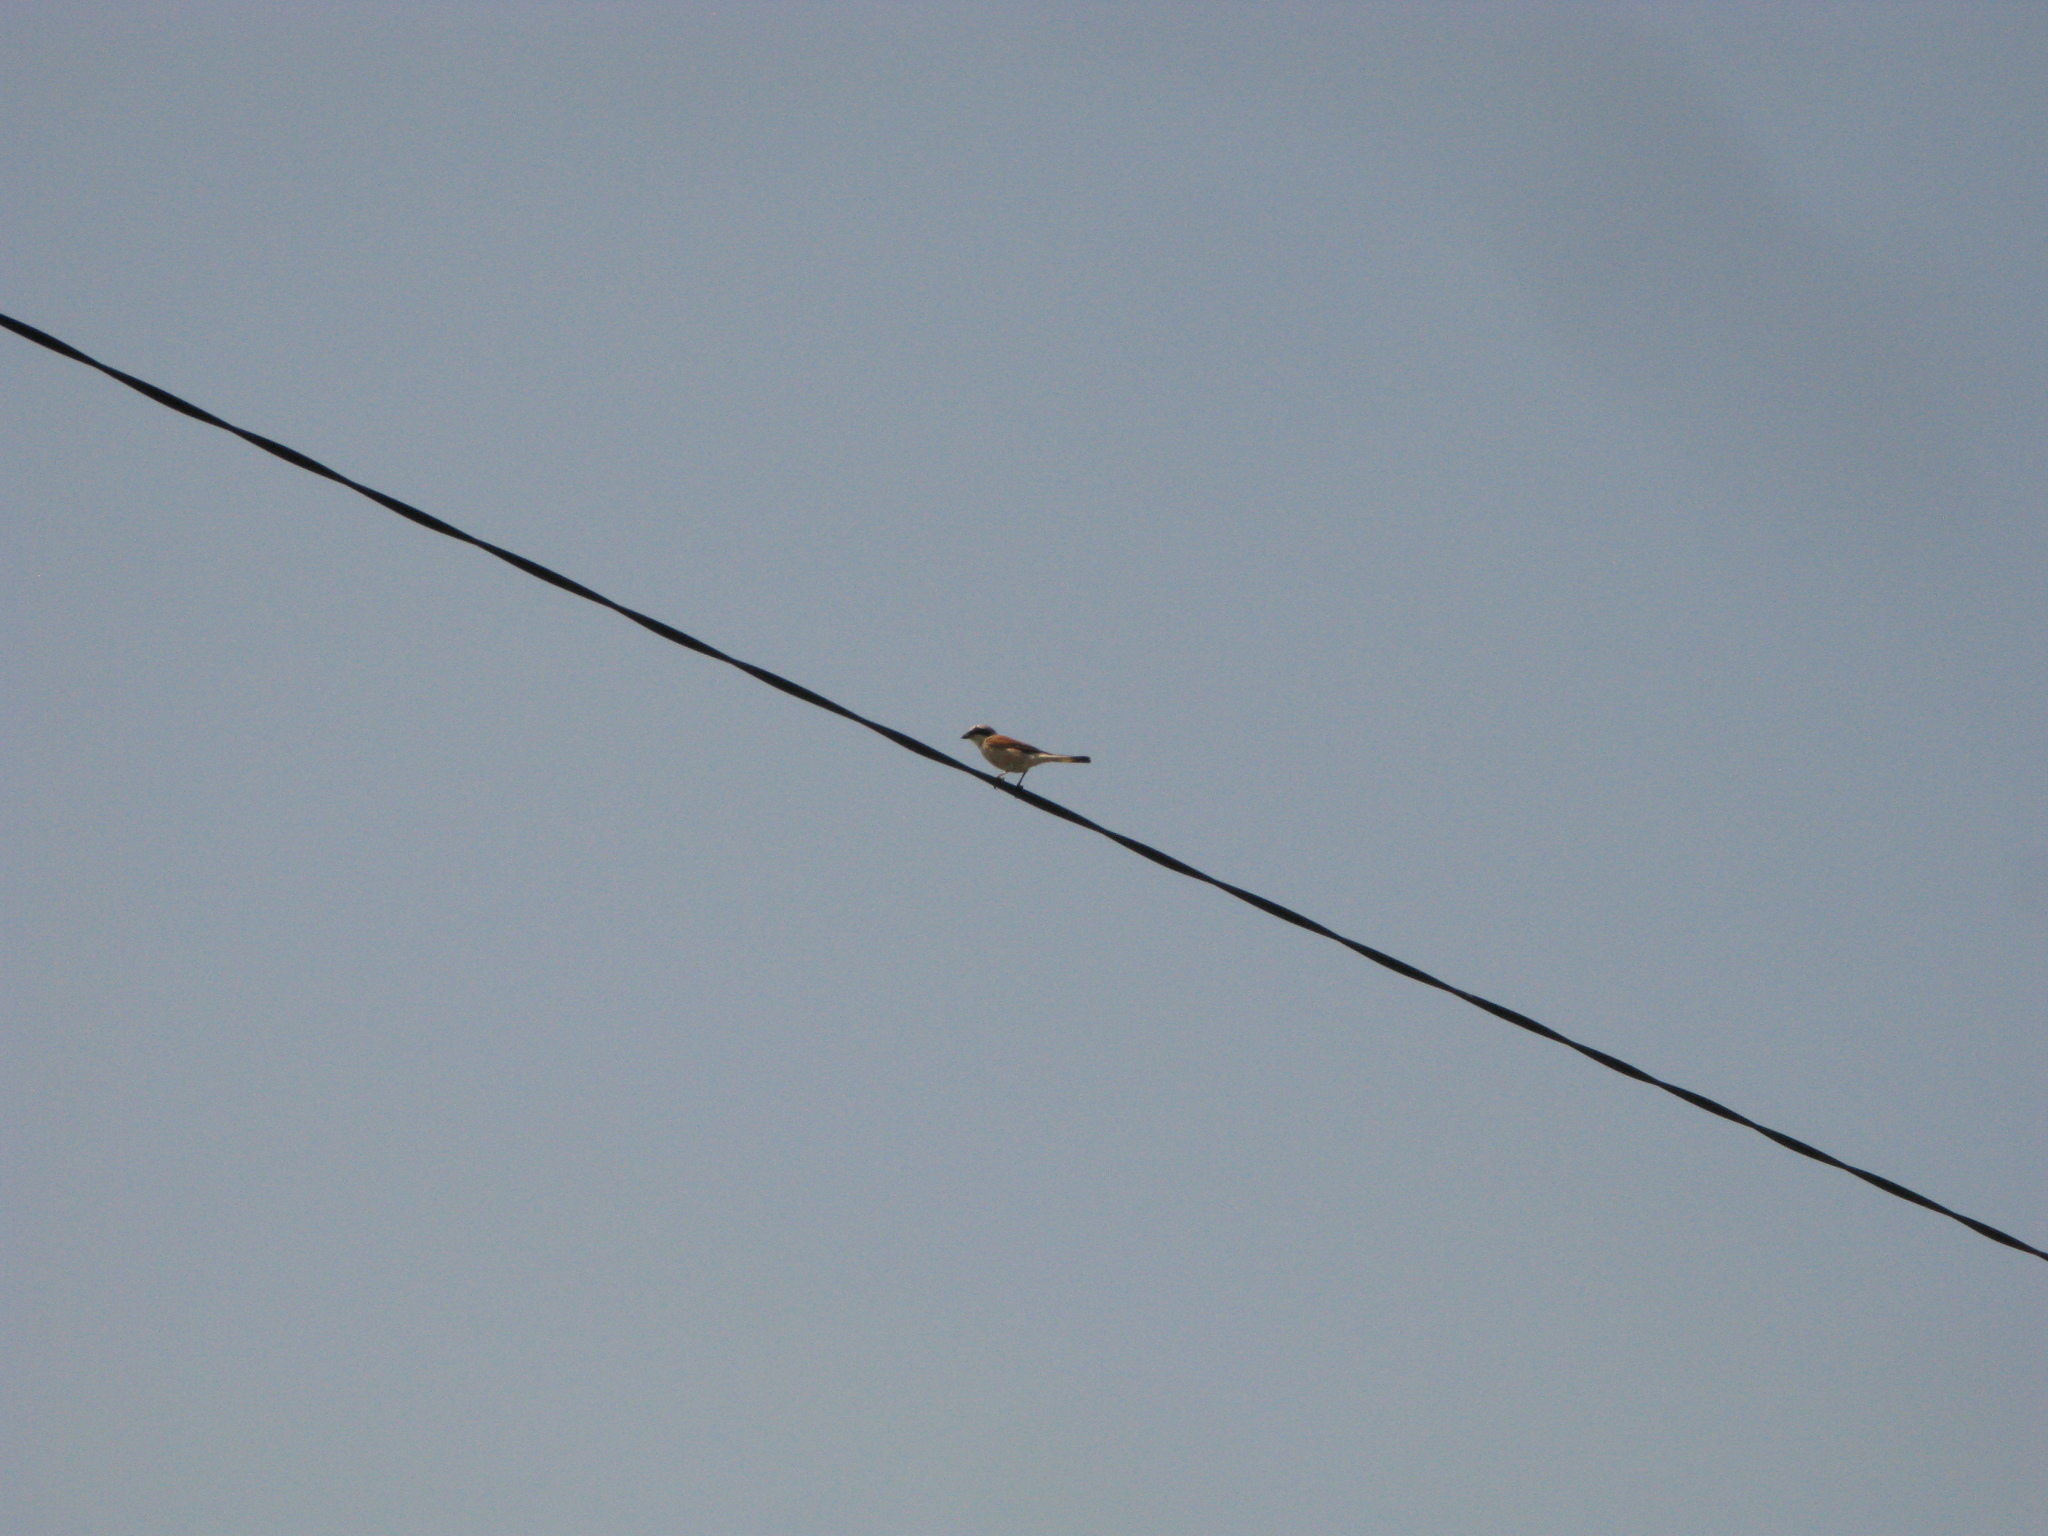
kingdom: Animalia
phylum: Chordata
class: Aves
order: Passeriformes
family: Laniidae
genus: Lanius
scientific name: Lanius collurio
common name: Red-backed shrike
